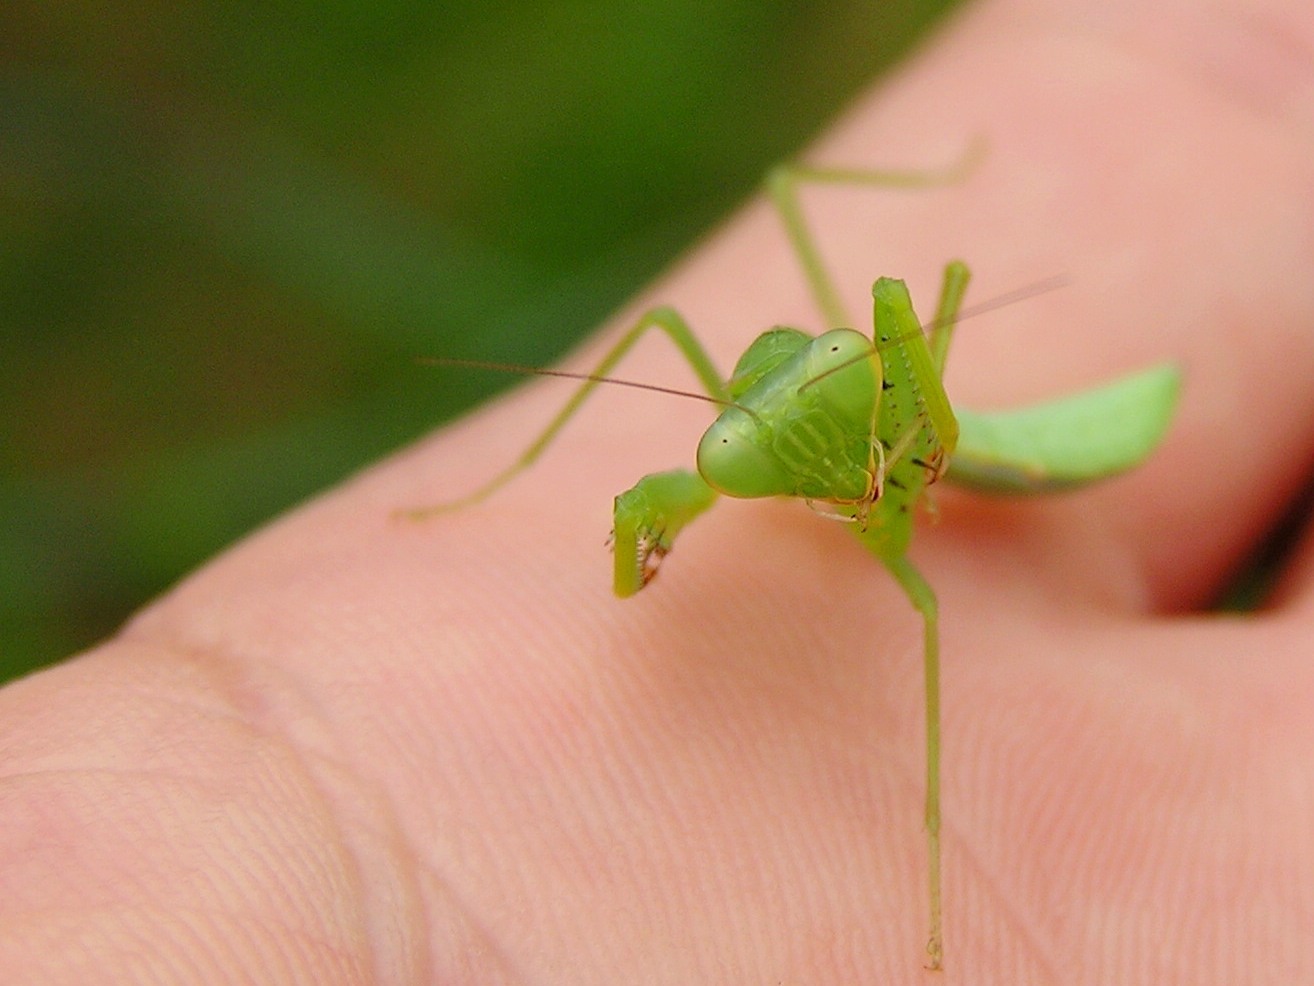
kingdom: Animalia
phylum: Arthropoda
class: Insecta
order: Mantodea
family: Mantidae
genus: Hierodula
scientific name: Hierodula pistillinota
